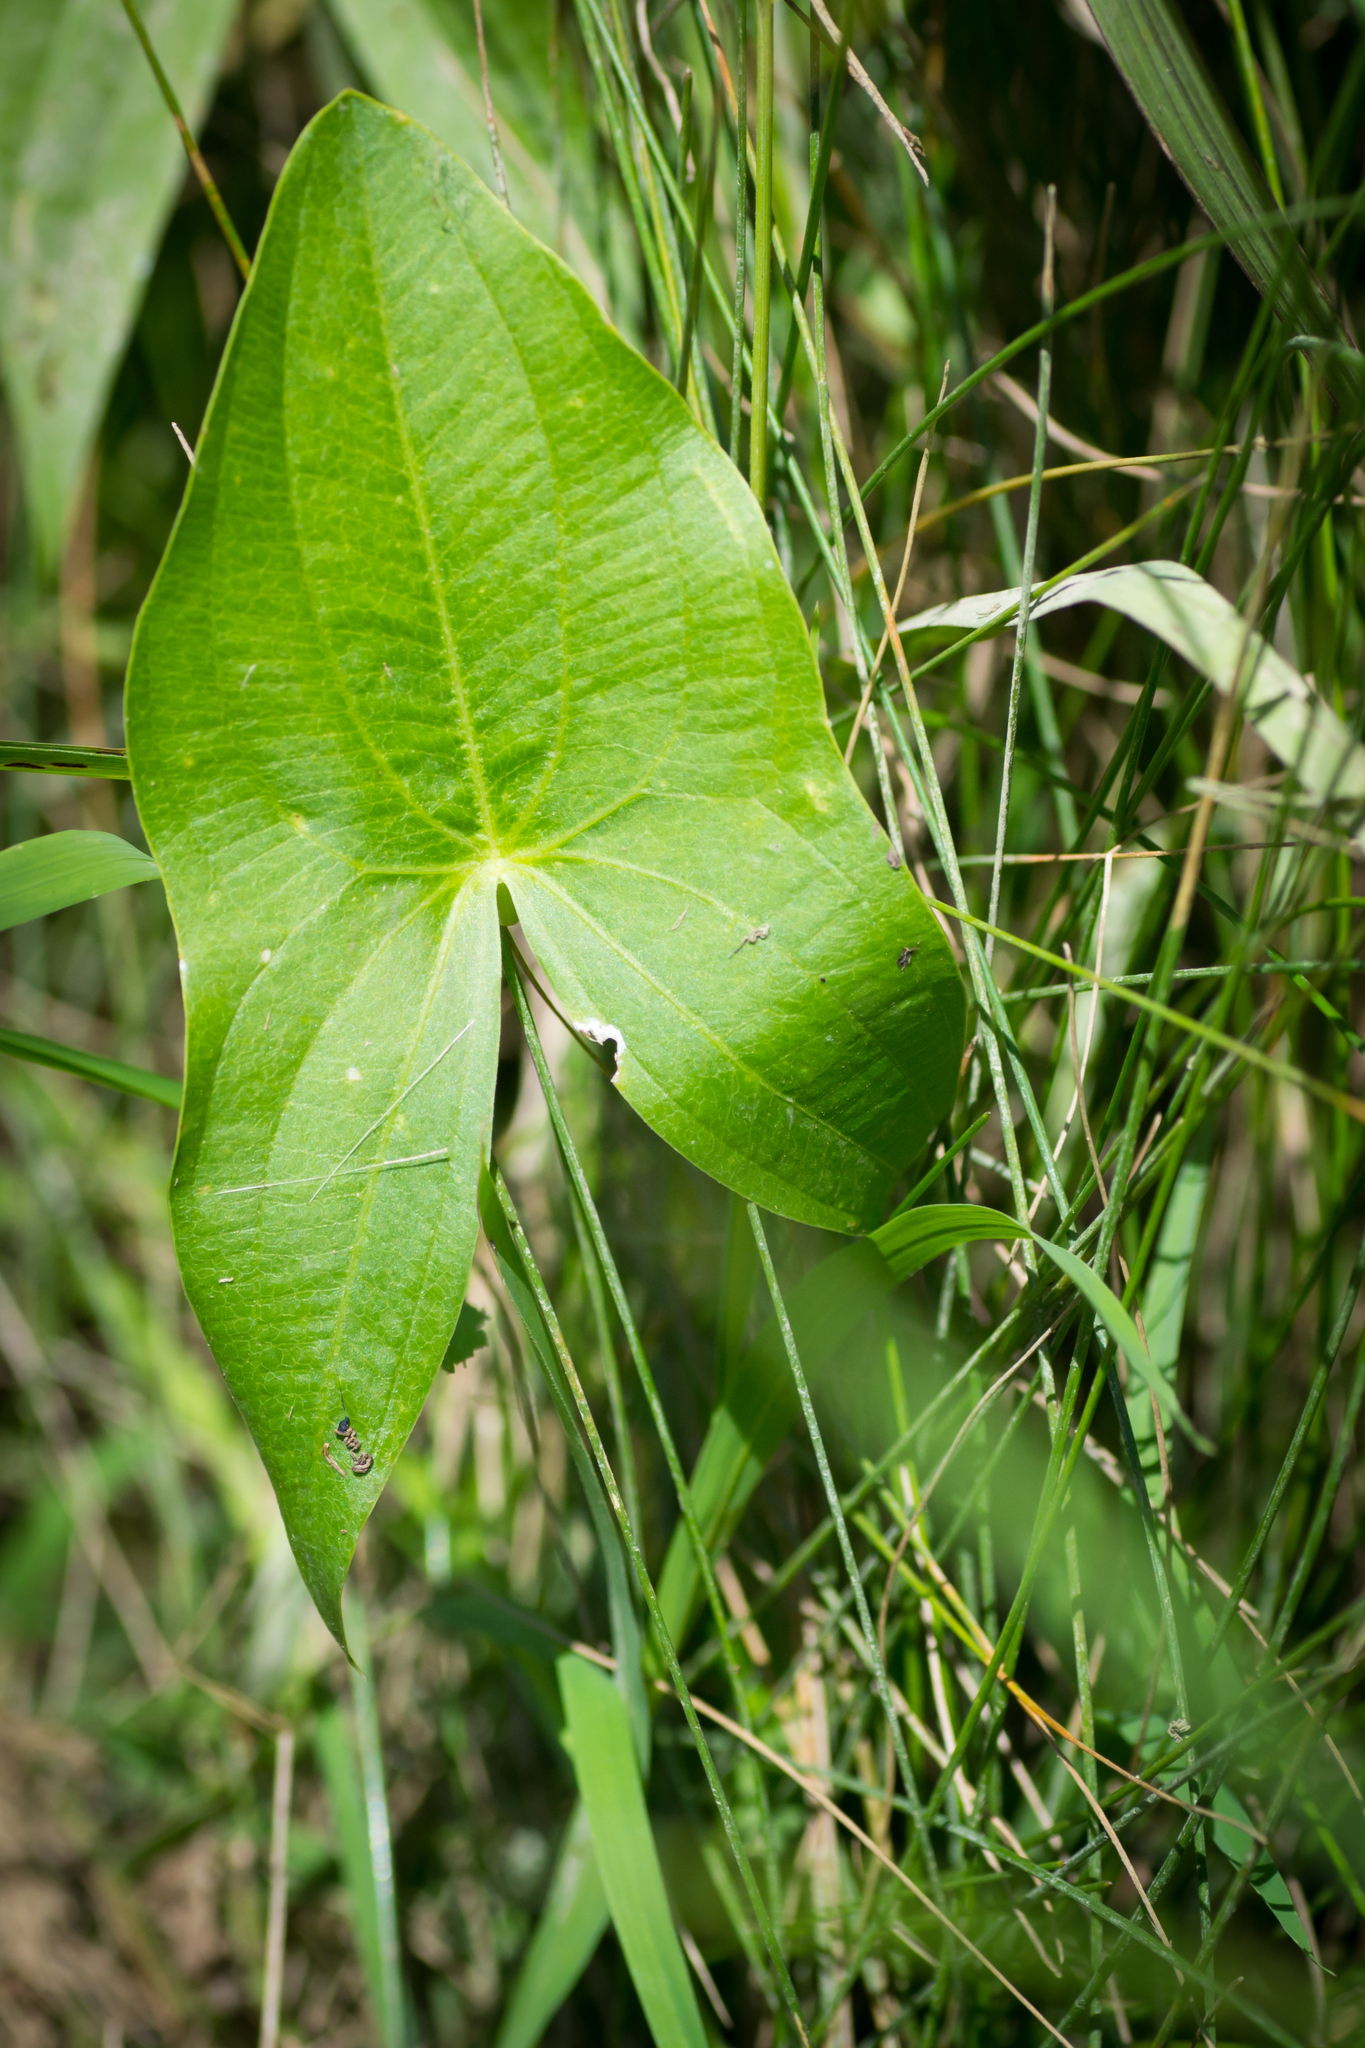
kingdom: Plantae
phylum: Tracheophyta
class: Liliopsida
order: Alismatales
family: Alismataceae
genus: Sagittaria
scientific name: Sagittaria latifolia
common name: Duck-potato
